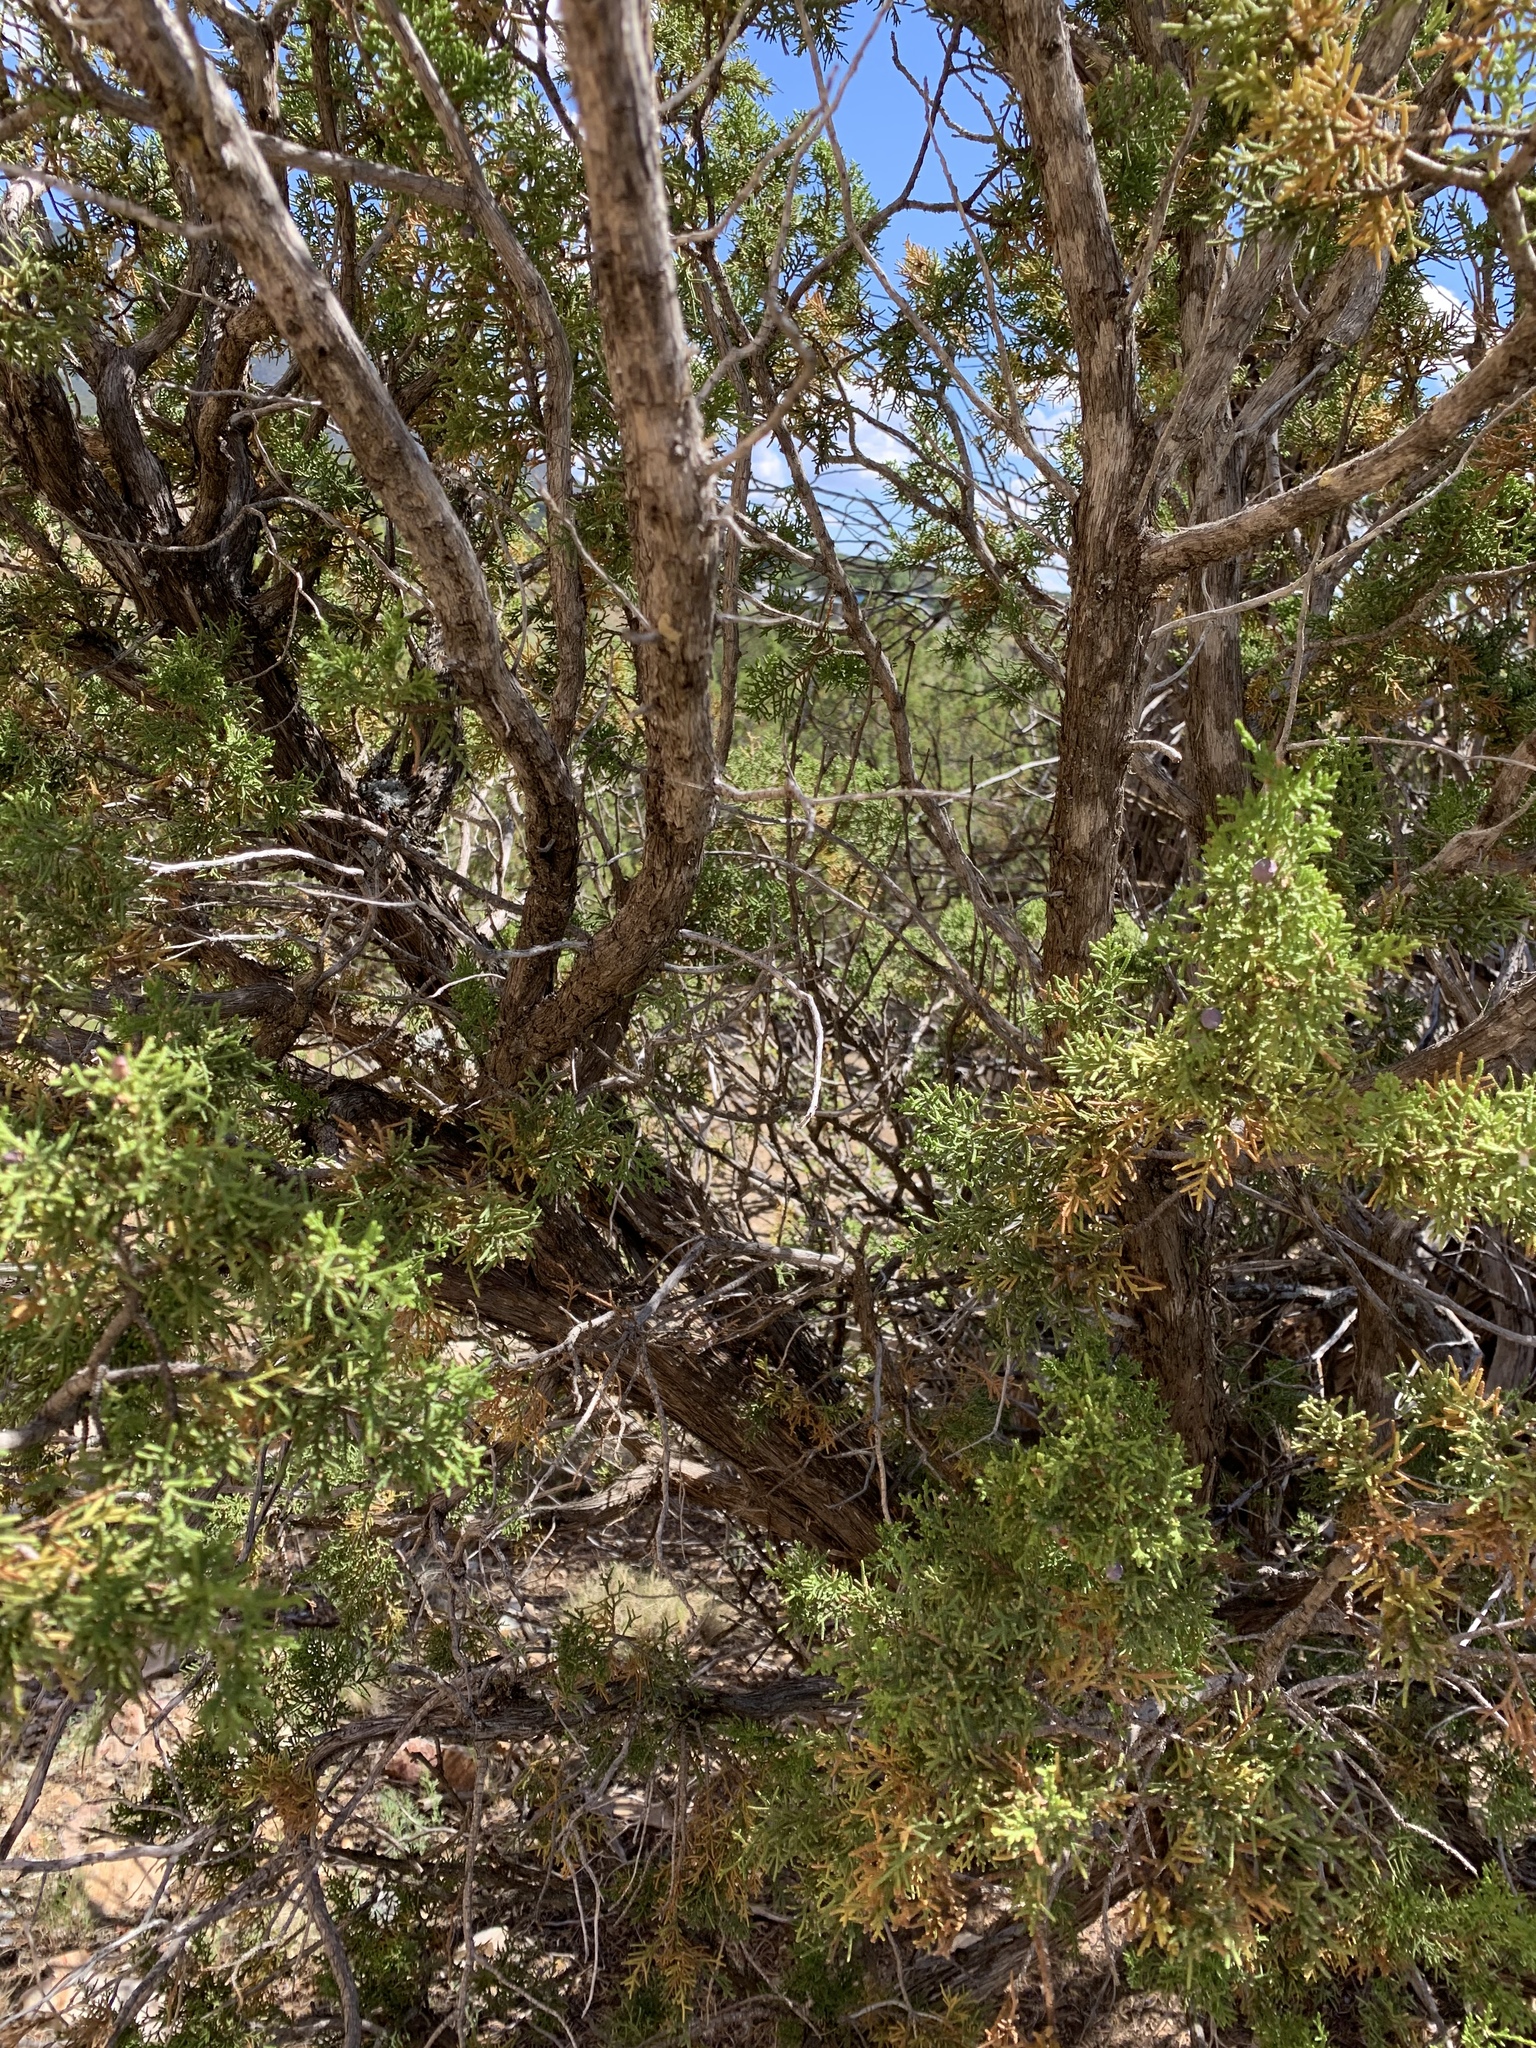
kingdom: Plantae
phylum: Tracheophyta
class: Pinopsida
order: Pinales
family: Cupressaceae
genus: Juniperus
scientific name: Juniperus monosperma
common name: One-seed juniper
